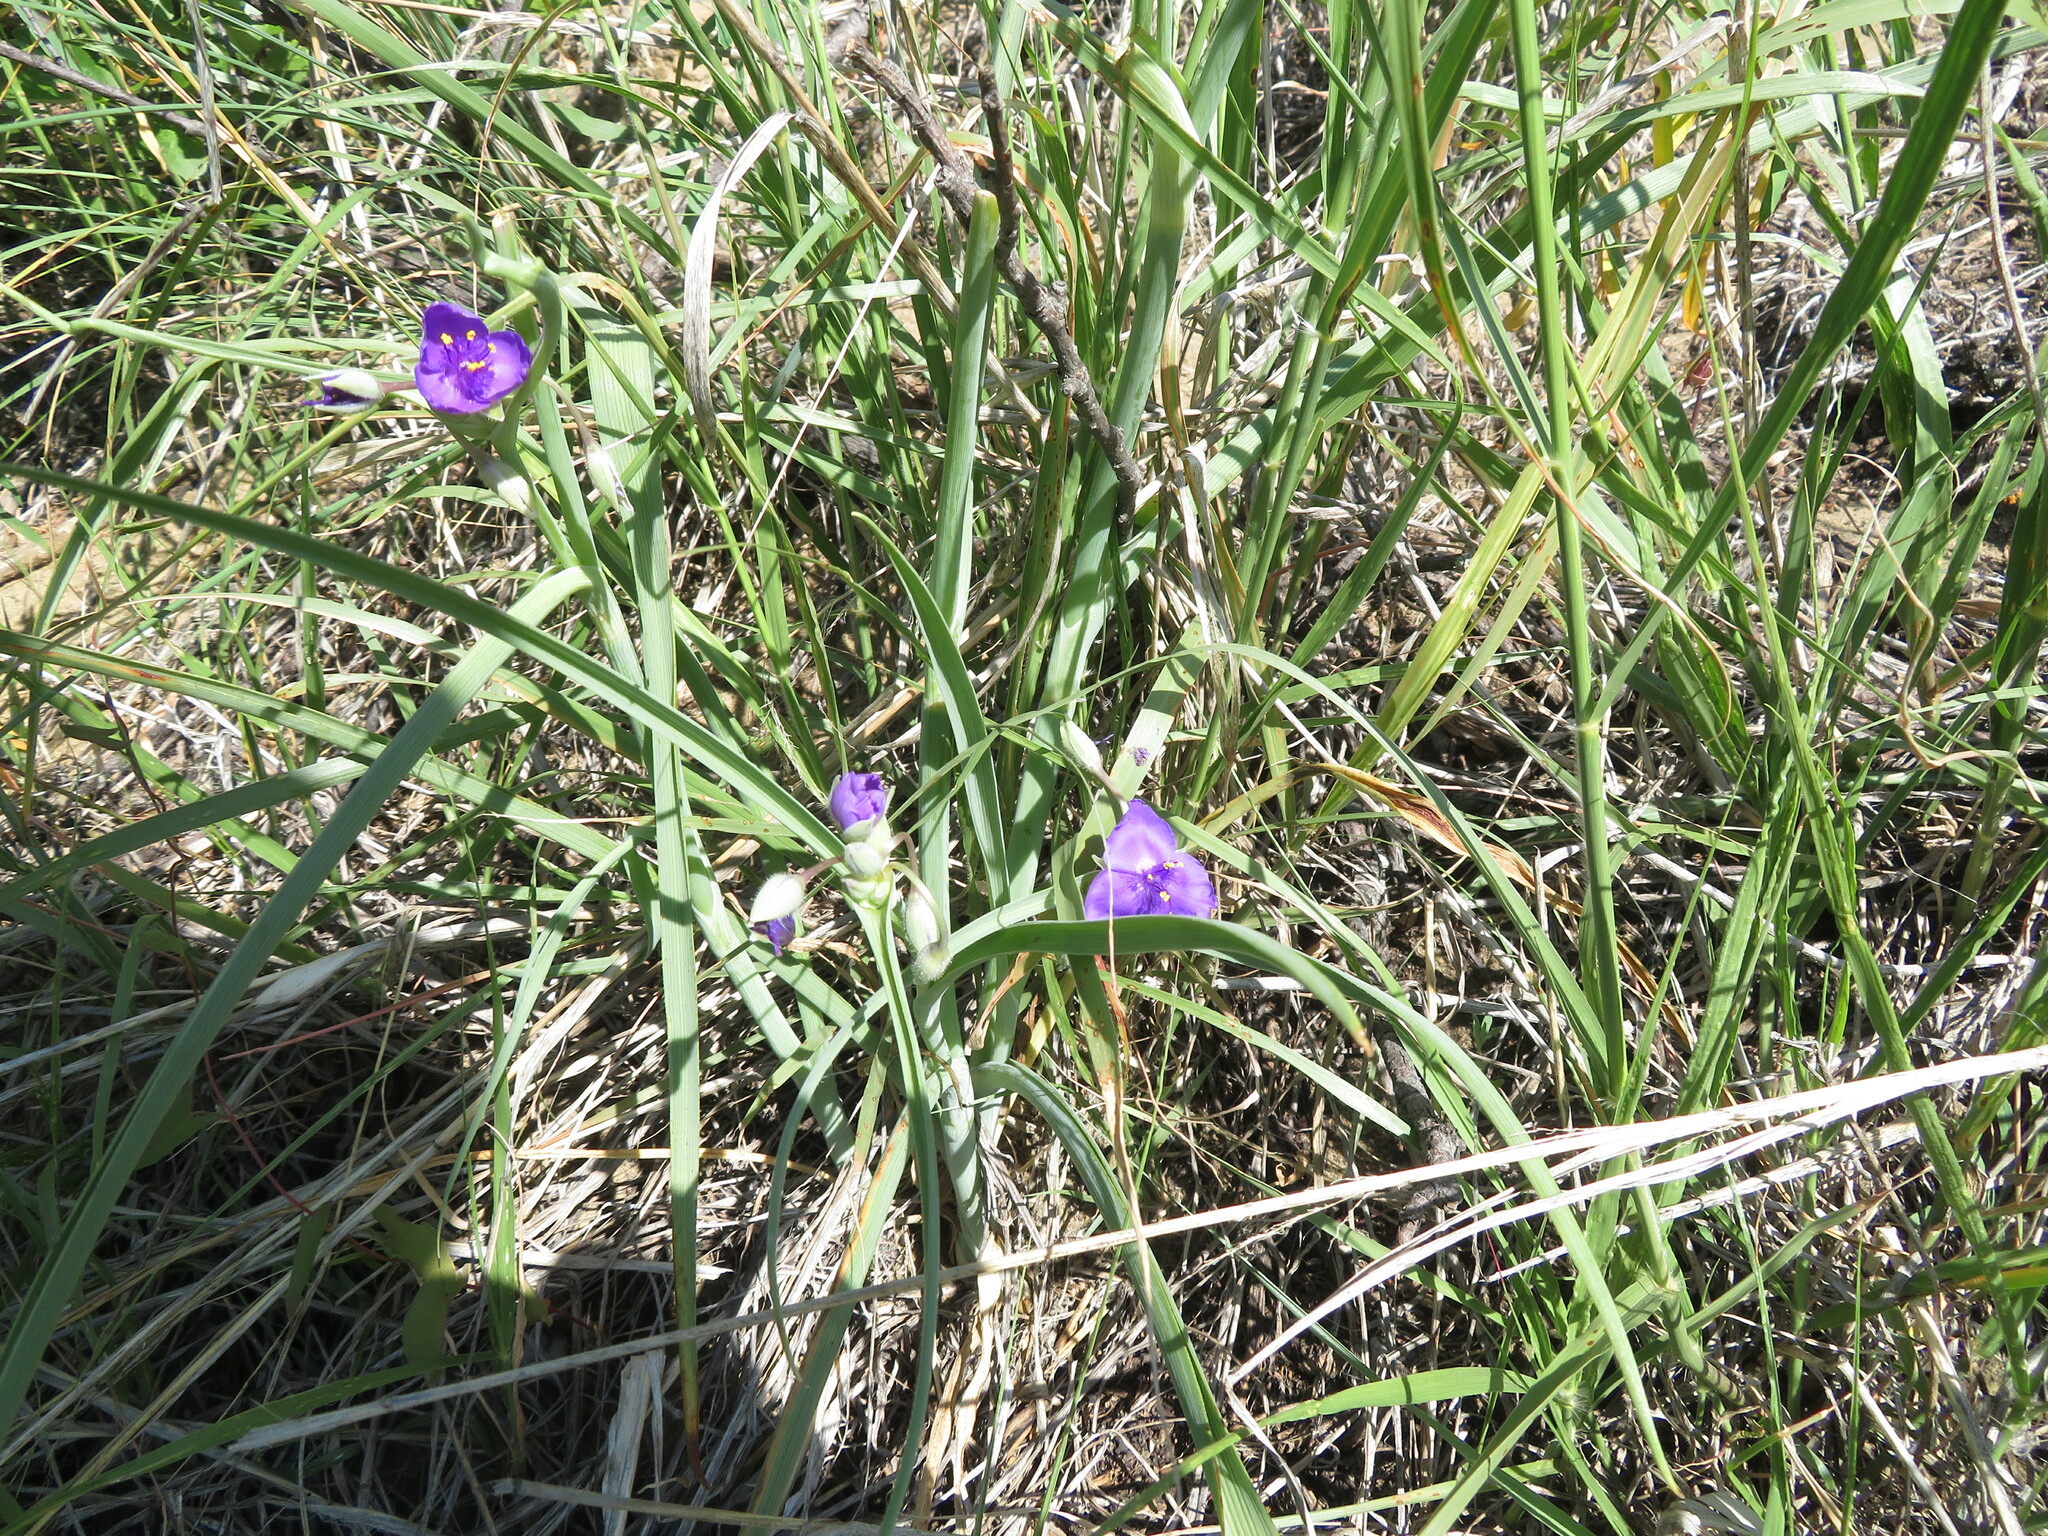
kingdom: Plantae
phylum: Tracheophyta
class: Liliopsida
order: Commelinales
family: Commelinaceae
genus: Tradescantia
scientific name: Tradescantia occidentalis
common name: Prairie spiderwort
